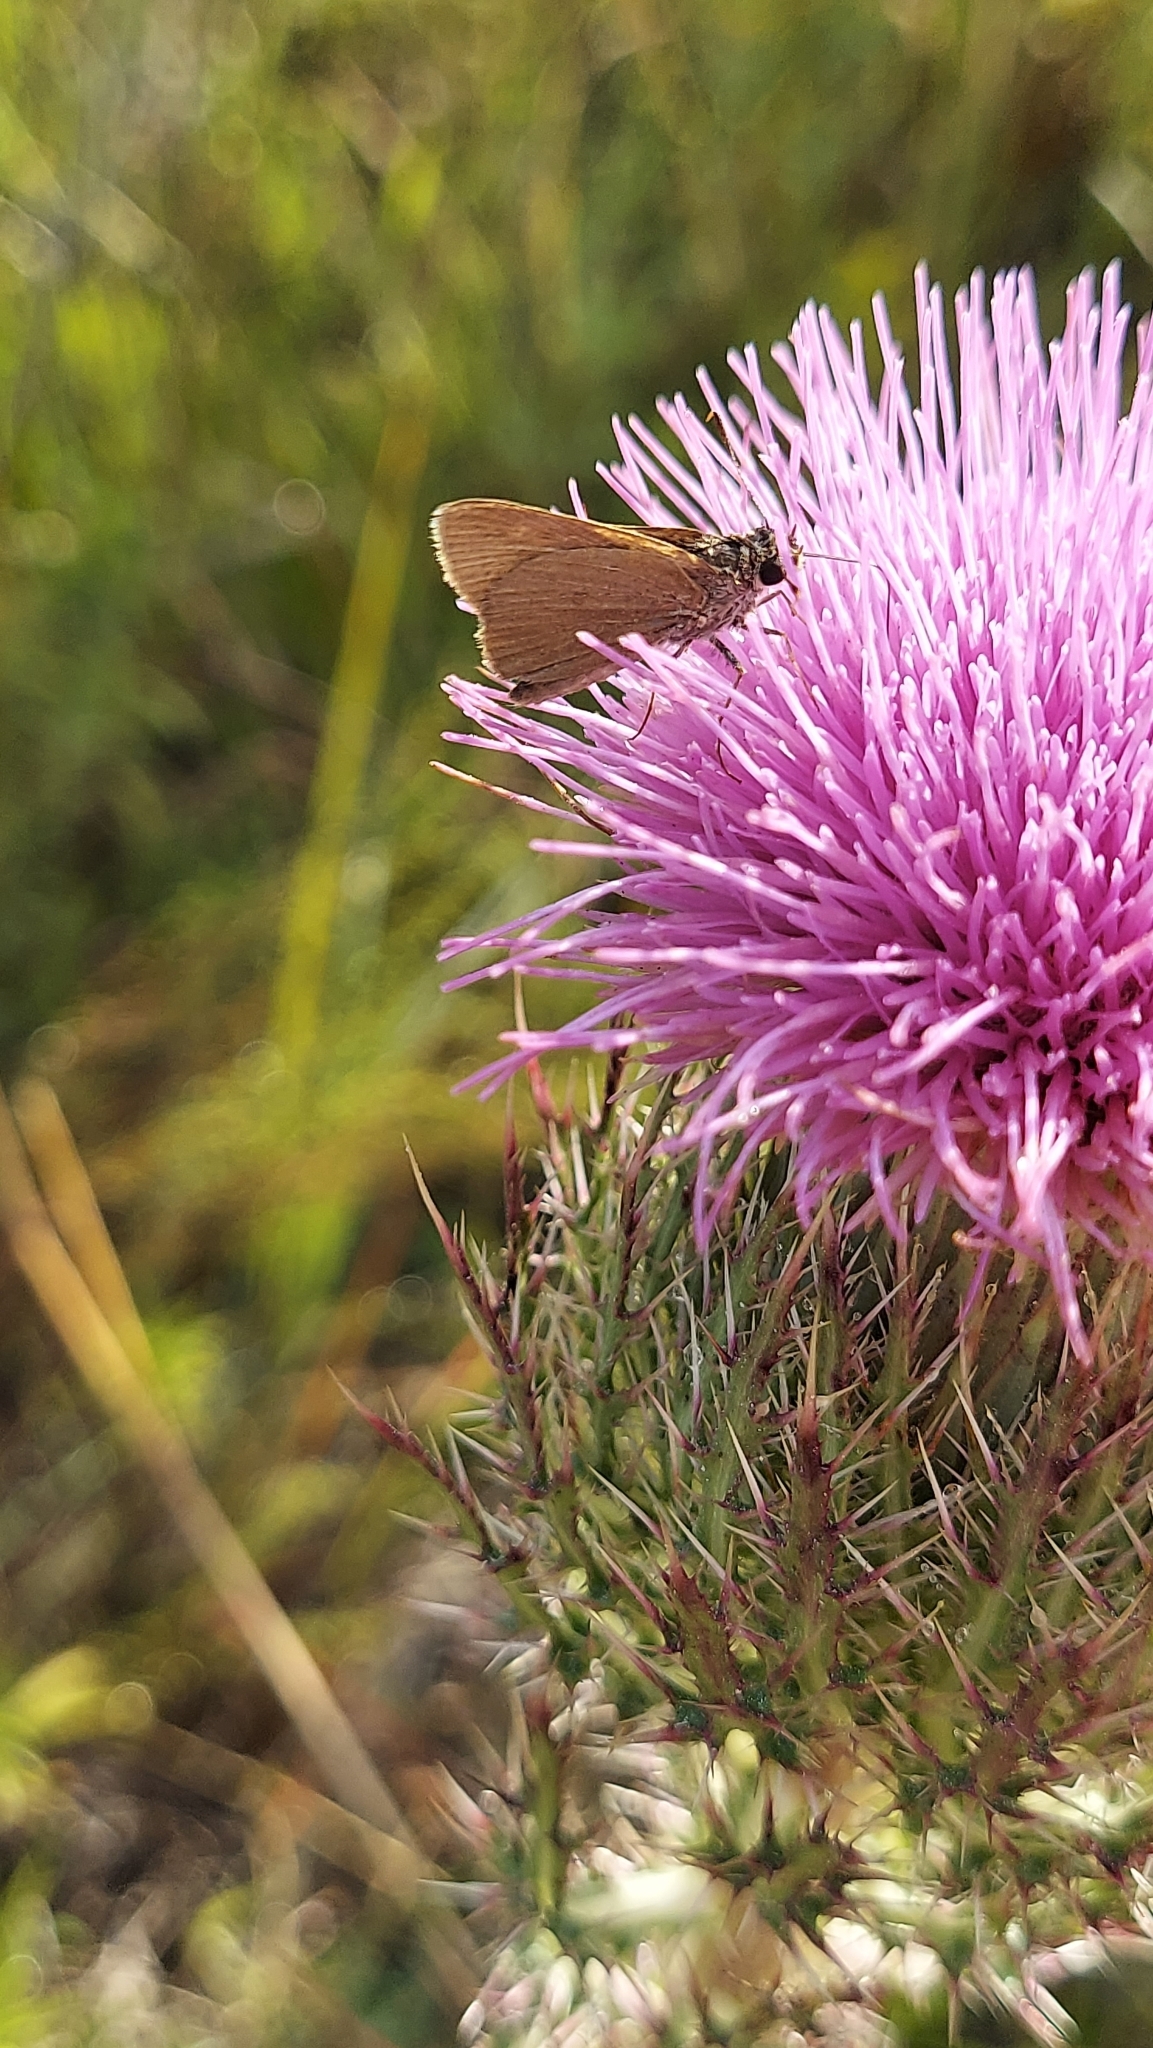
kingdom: Animalia
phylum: Arthropoda
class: Insecta
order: Lepidoptera
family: Hesperiidae
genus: Nastra
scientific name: Nastra
